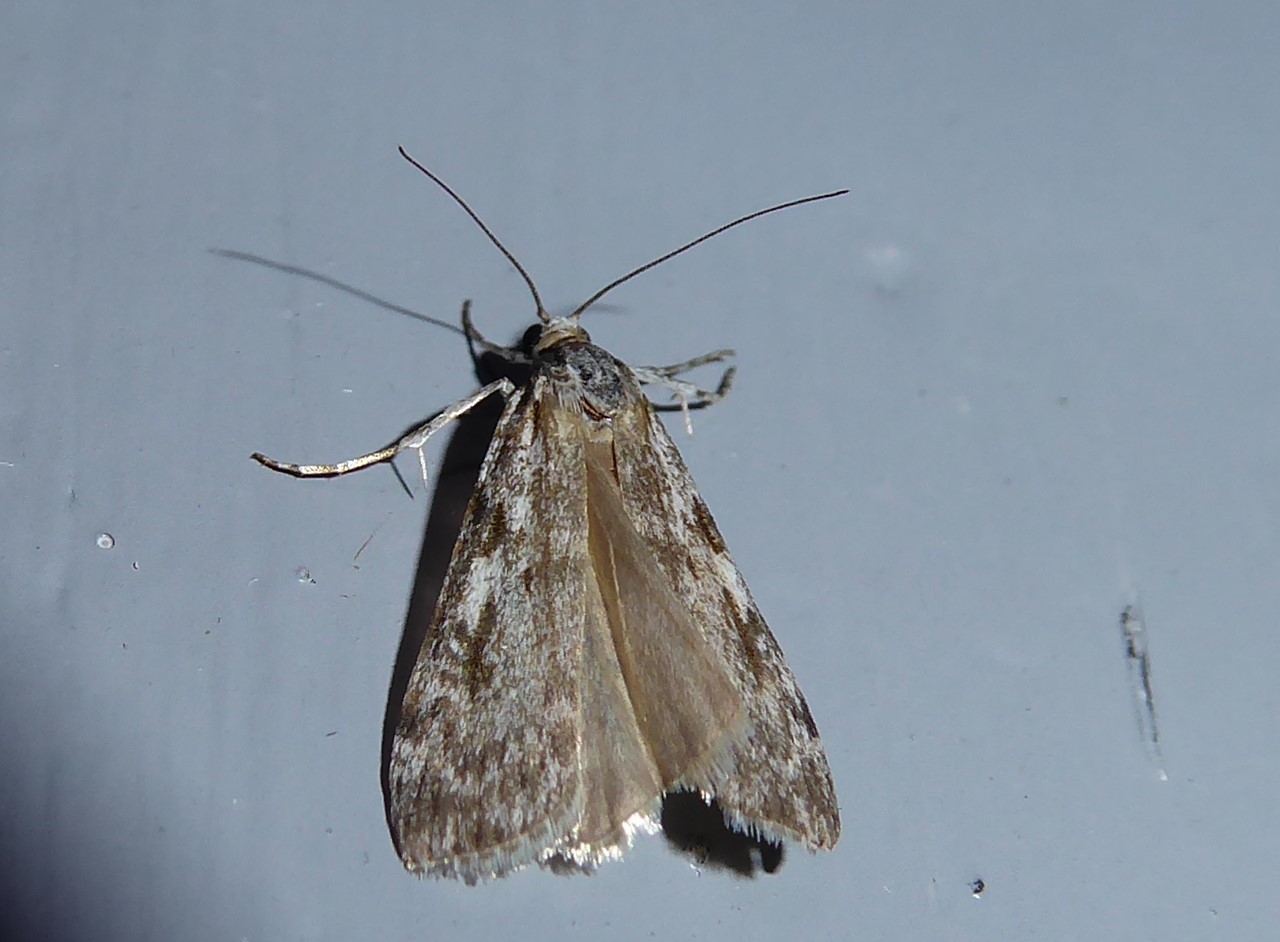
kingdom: Animalia
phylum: Arthropoda
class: Insecta
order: Lepidoptera
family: Crambidae
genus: Scoparia
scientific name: Scoparia halopis
